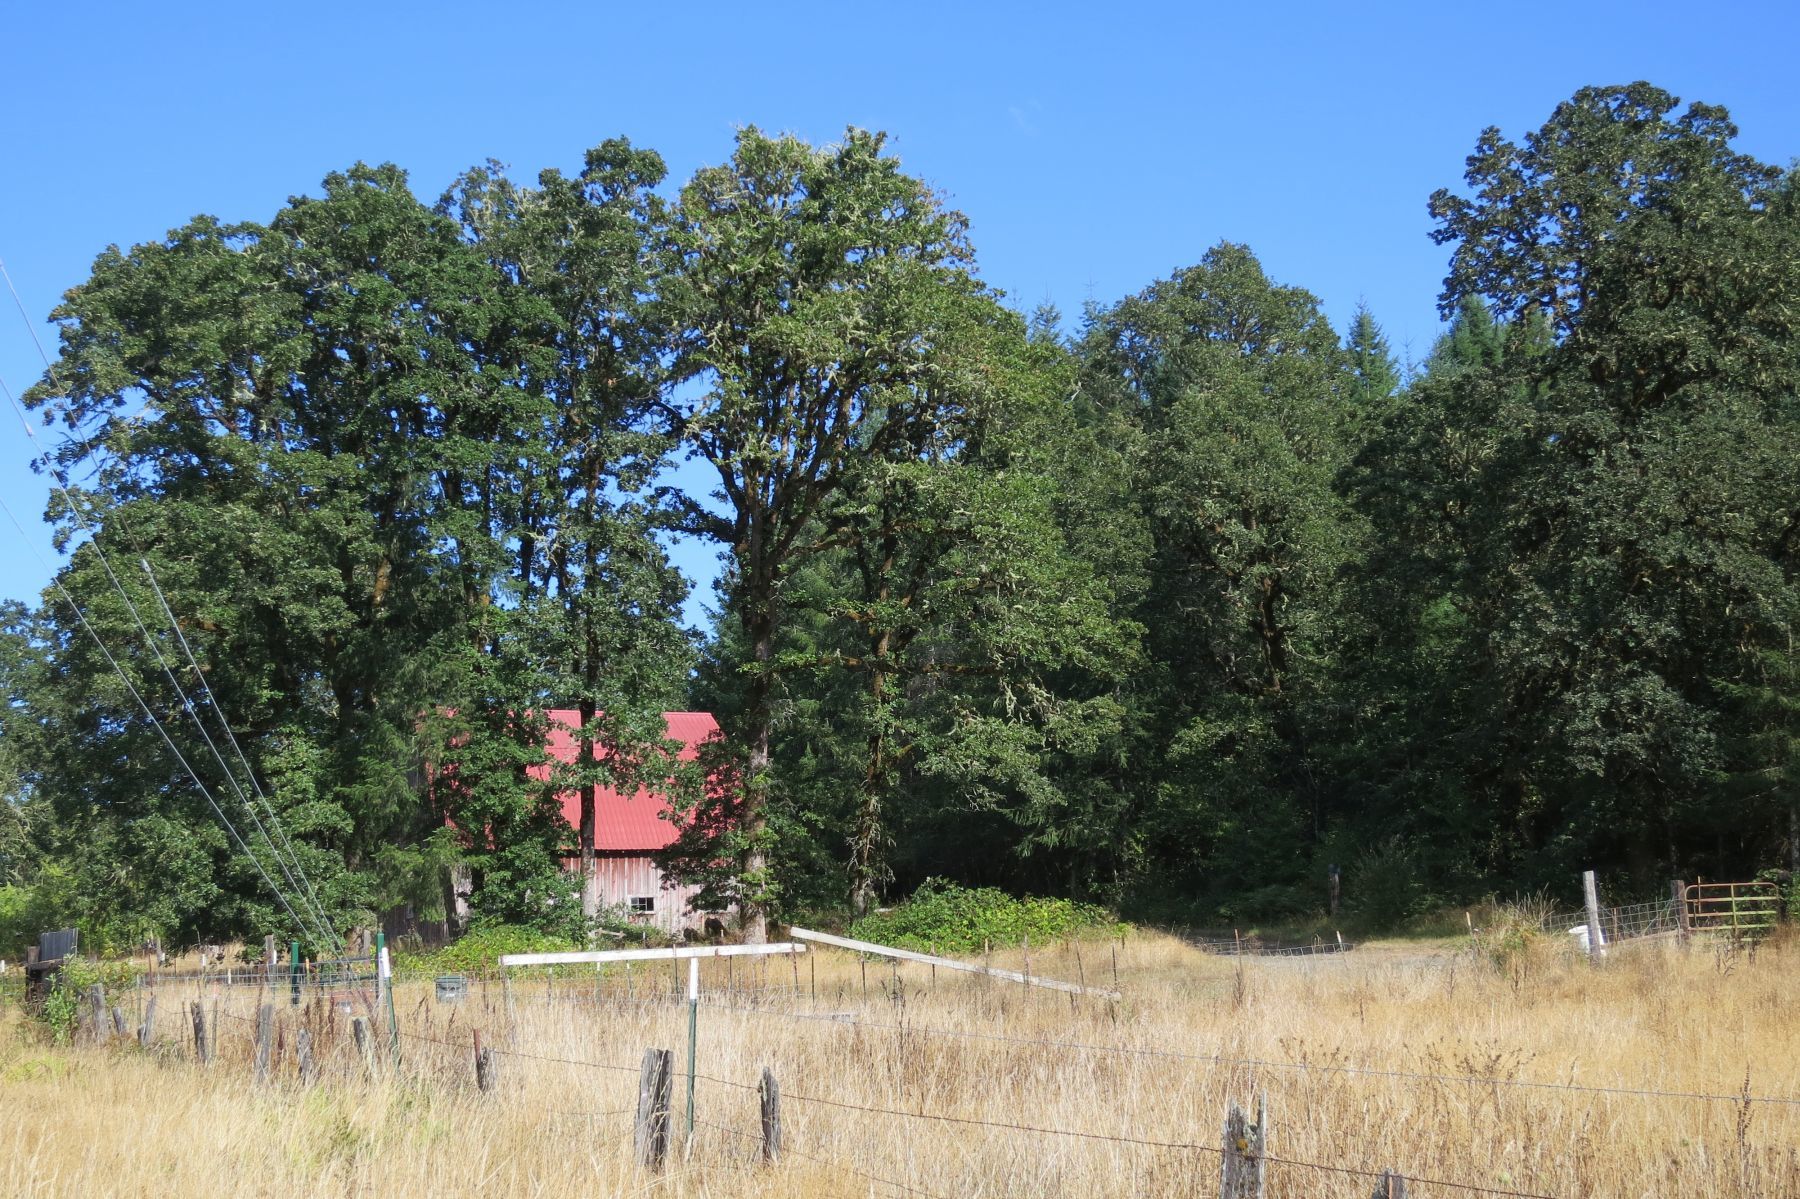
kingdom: Plantae
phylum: Tracheophyta
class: Magnoliopsida
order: Fagales
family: Fagaceae
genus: Quercus
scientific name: Quercus garryana
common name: Garry oak
